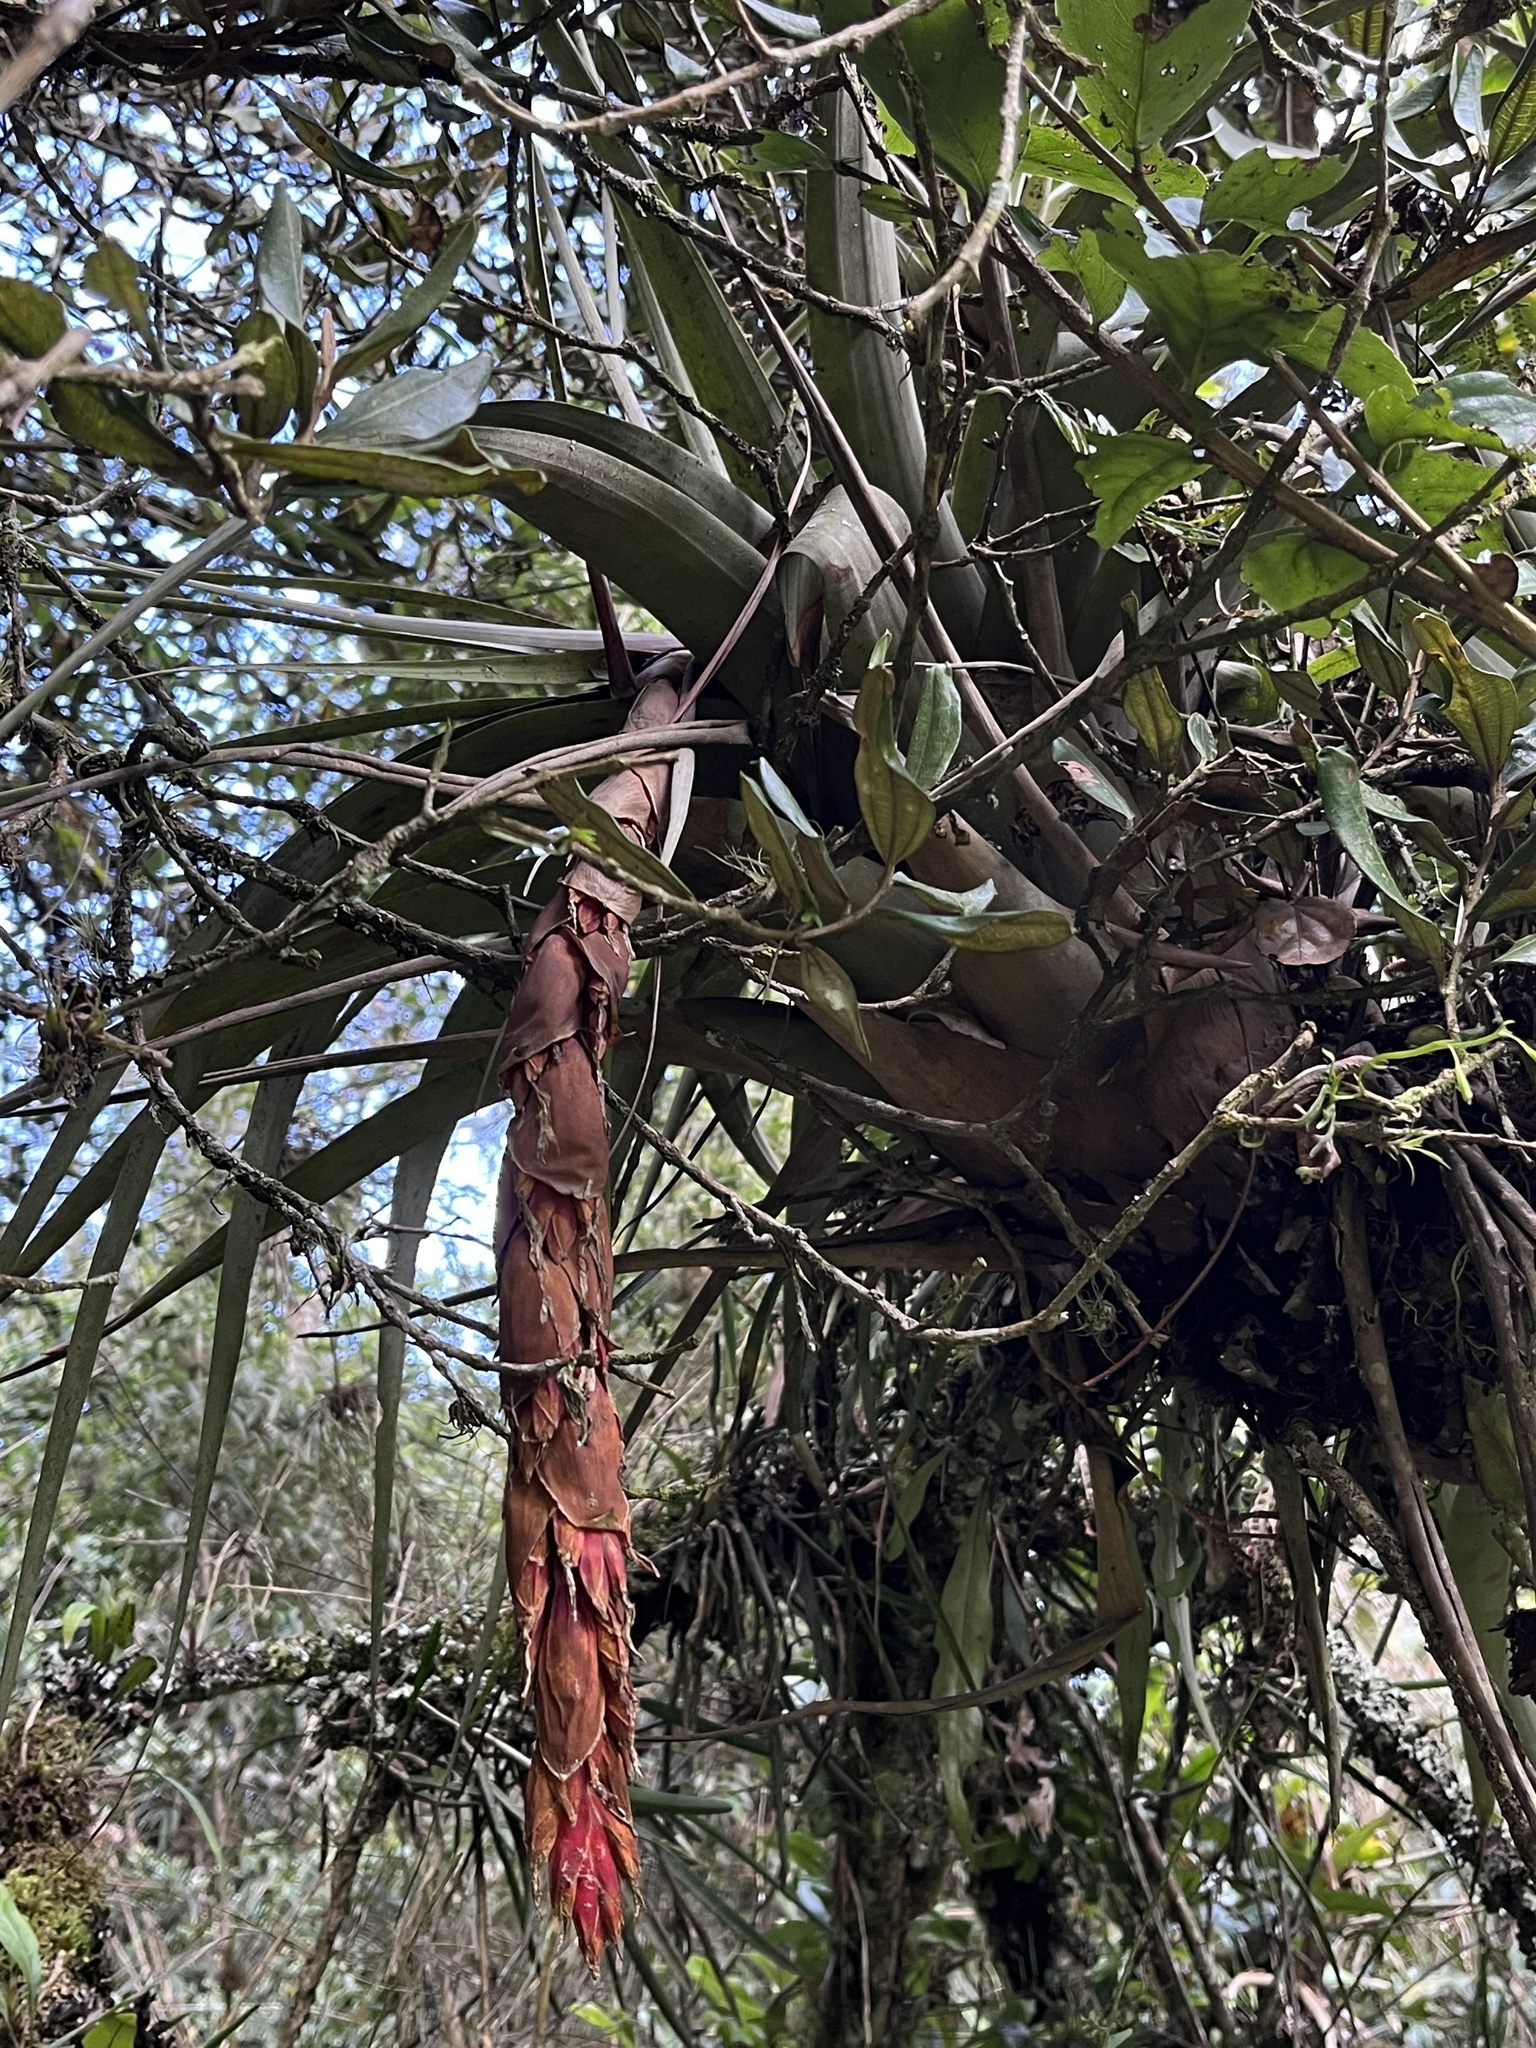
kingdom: Plantae
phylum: Tracheophyta
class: Liliopsida
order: Poales
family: Bromeliaceae
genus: Vriesea
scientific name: Vriesea tequendamae
